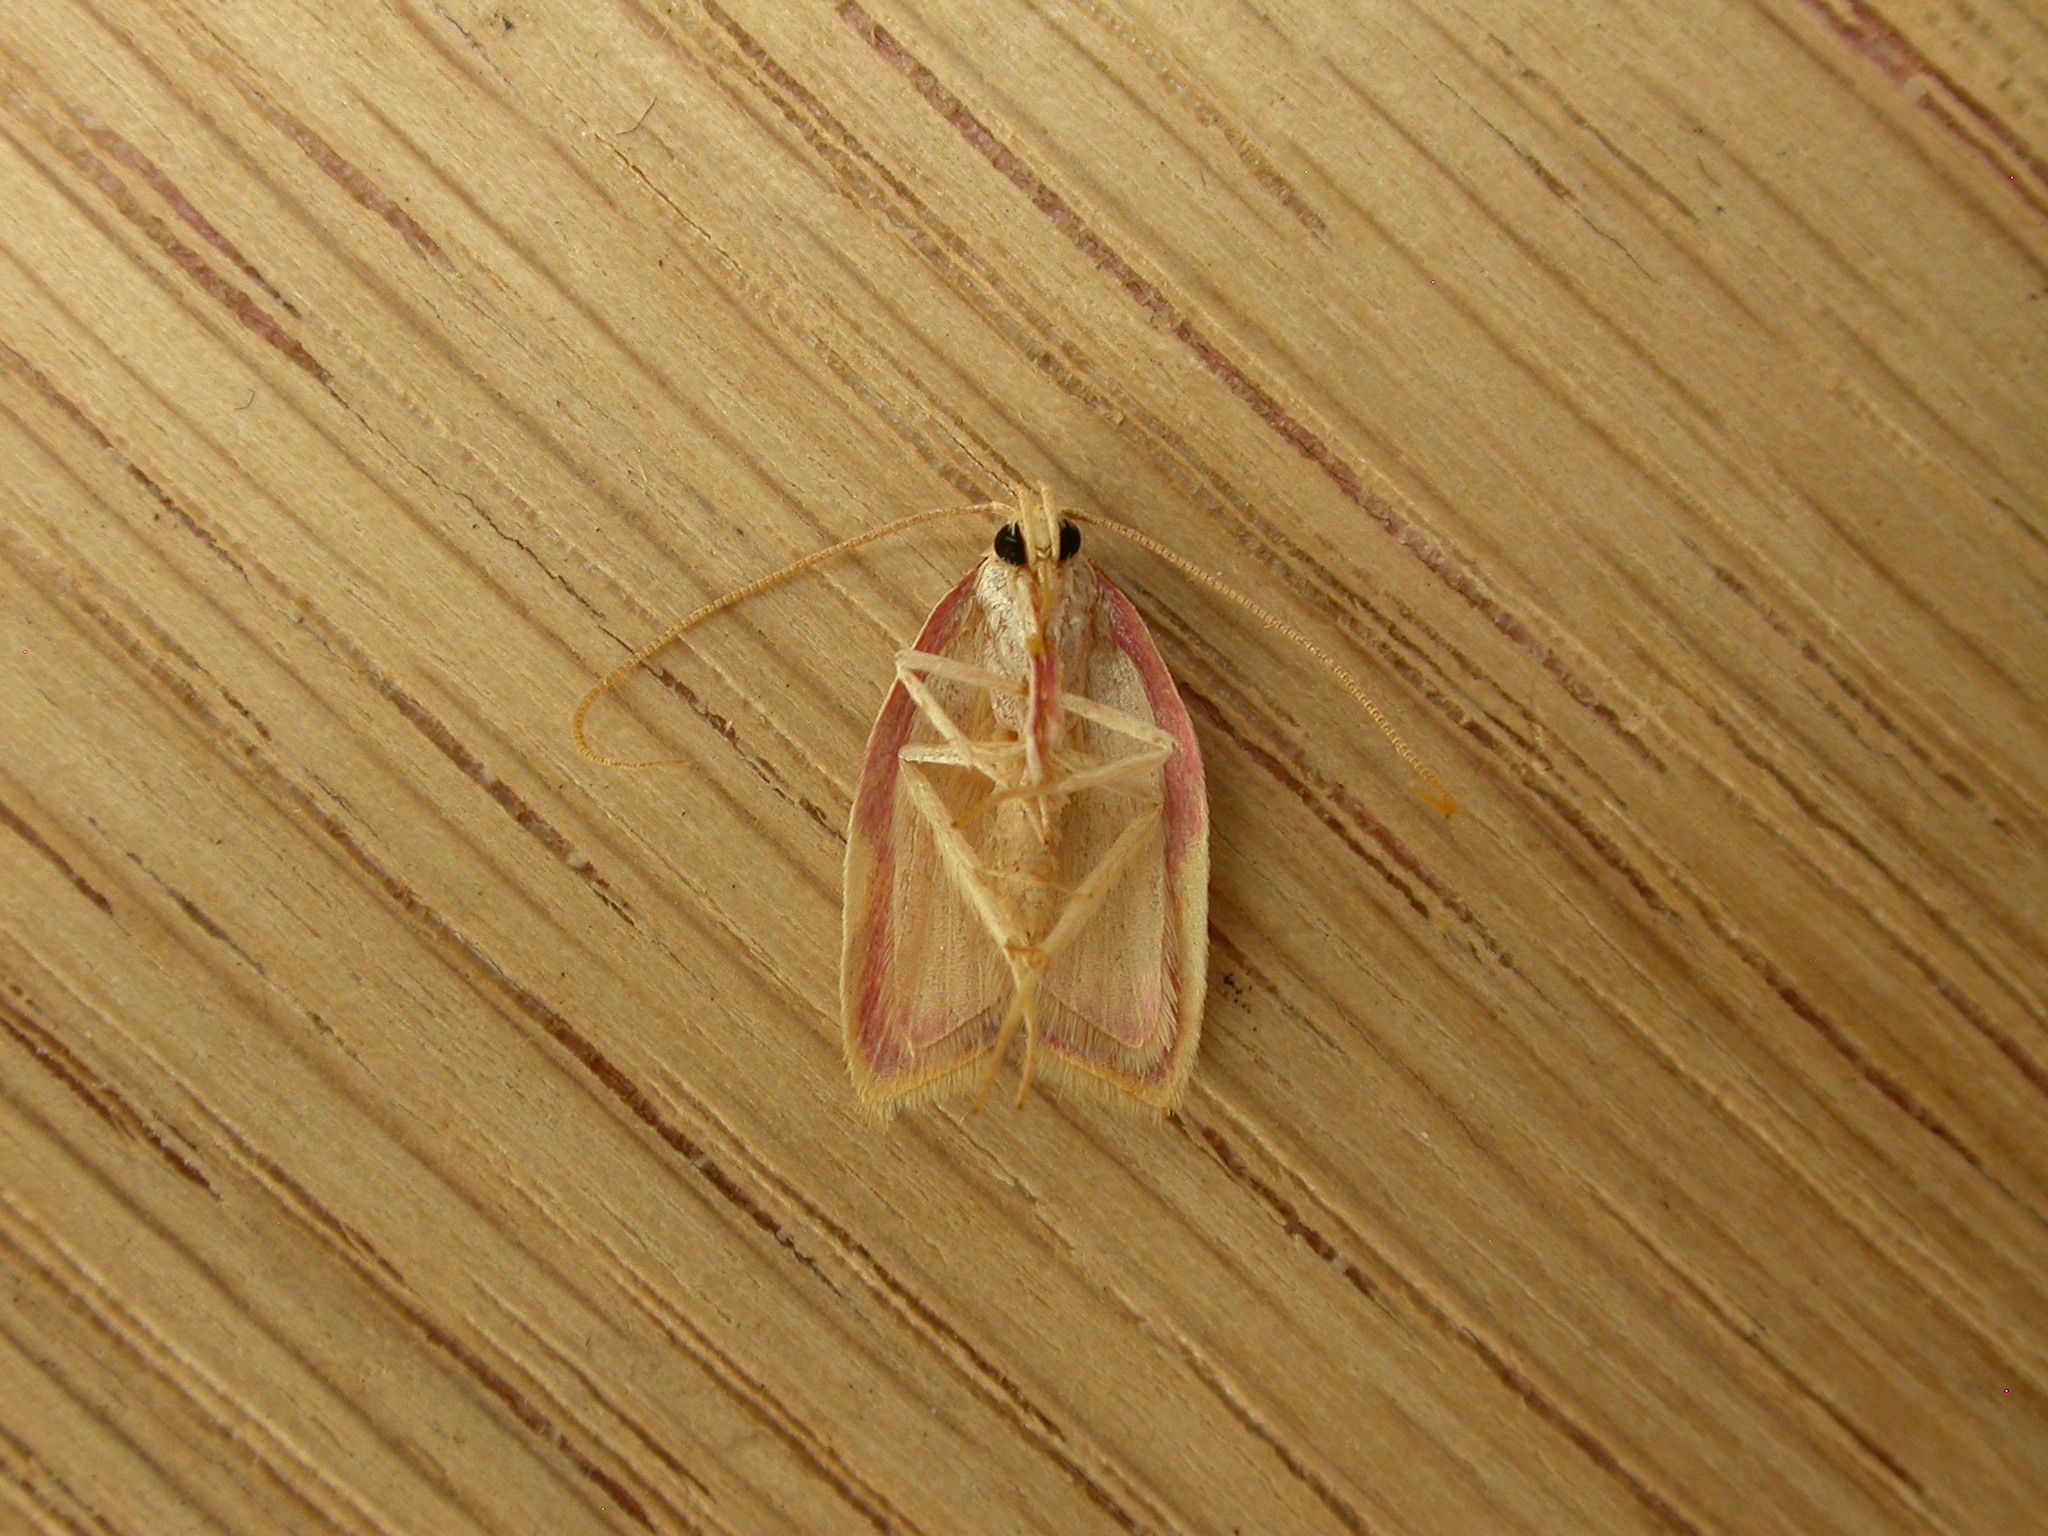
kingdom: Animalia
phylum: Arthropoda
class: Insecta
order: Lepidoptera
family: Peleopodidae
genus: Carcina
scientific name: Carcina quercana
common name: Moth
